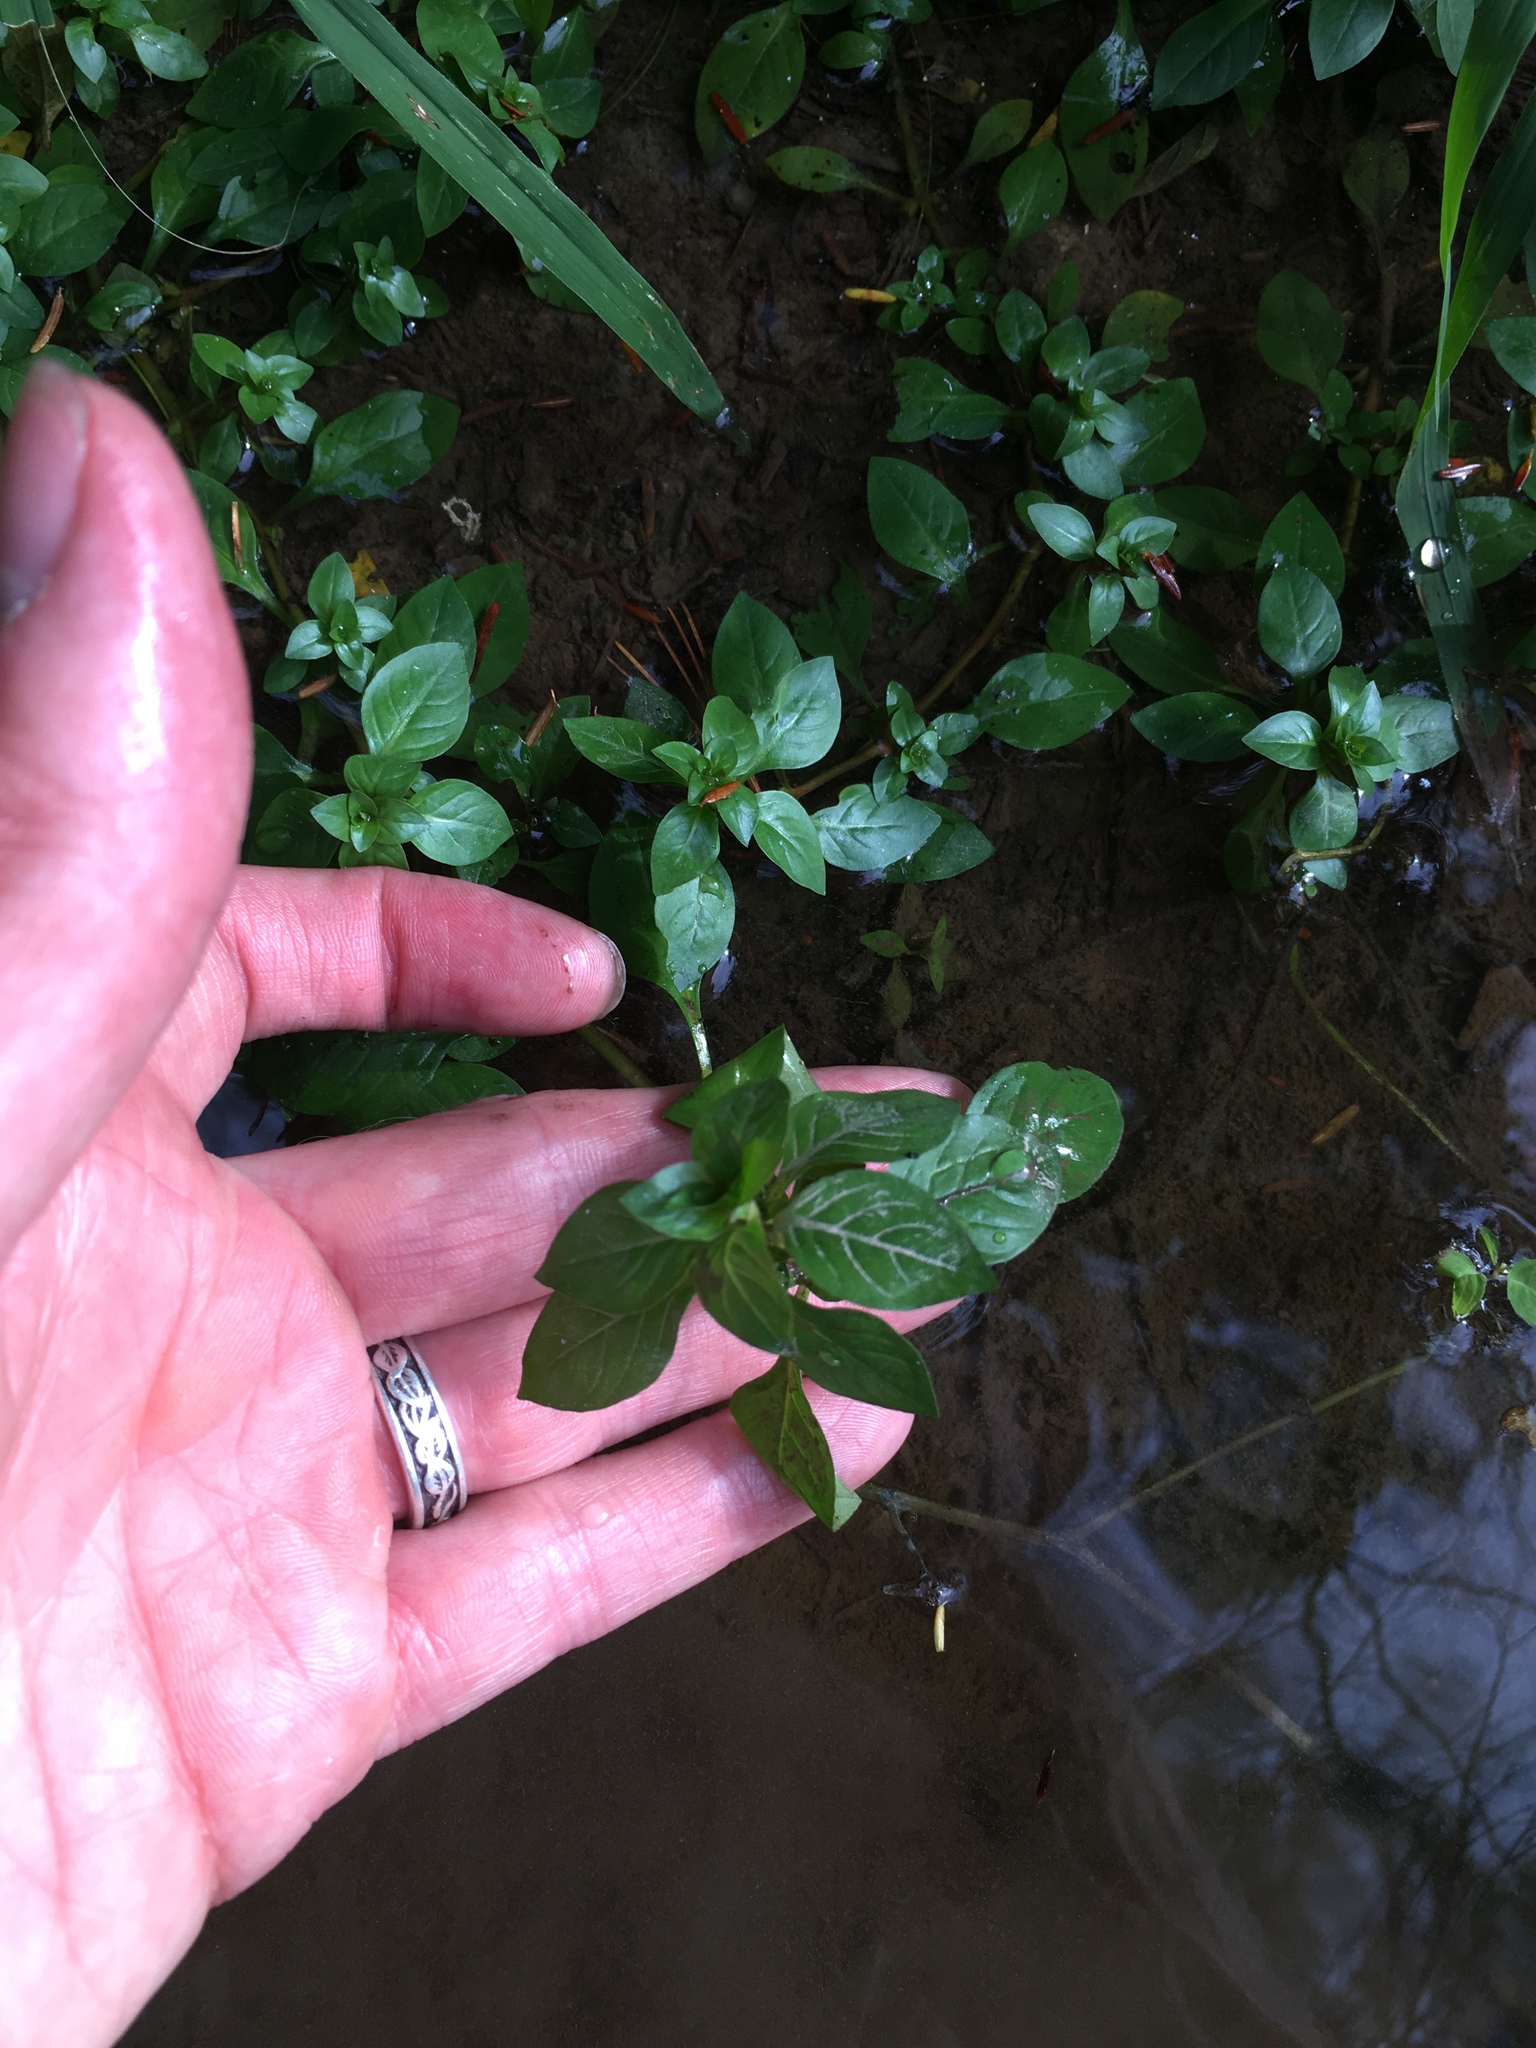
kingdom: Plantae
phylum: Tracheophyta
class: Magnoliopsida
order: Myrtales
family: Onagraceae
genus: Ludwigia
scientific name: Ludwigia palustris
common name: Hampshire-purslane
